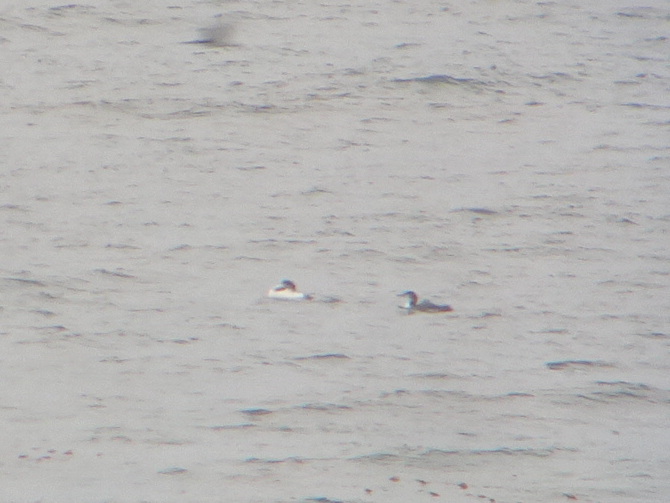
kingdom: Animalia
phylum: Chordata
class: Aves
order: Gaviiformes
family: Gaviidae
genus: Gavia
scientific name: Gavia immer
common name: Common loon
